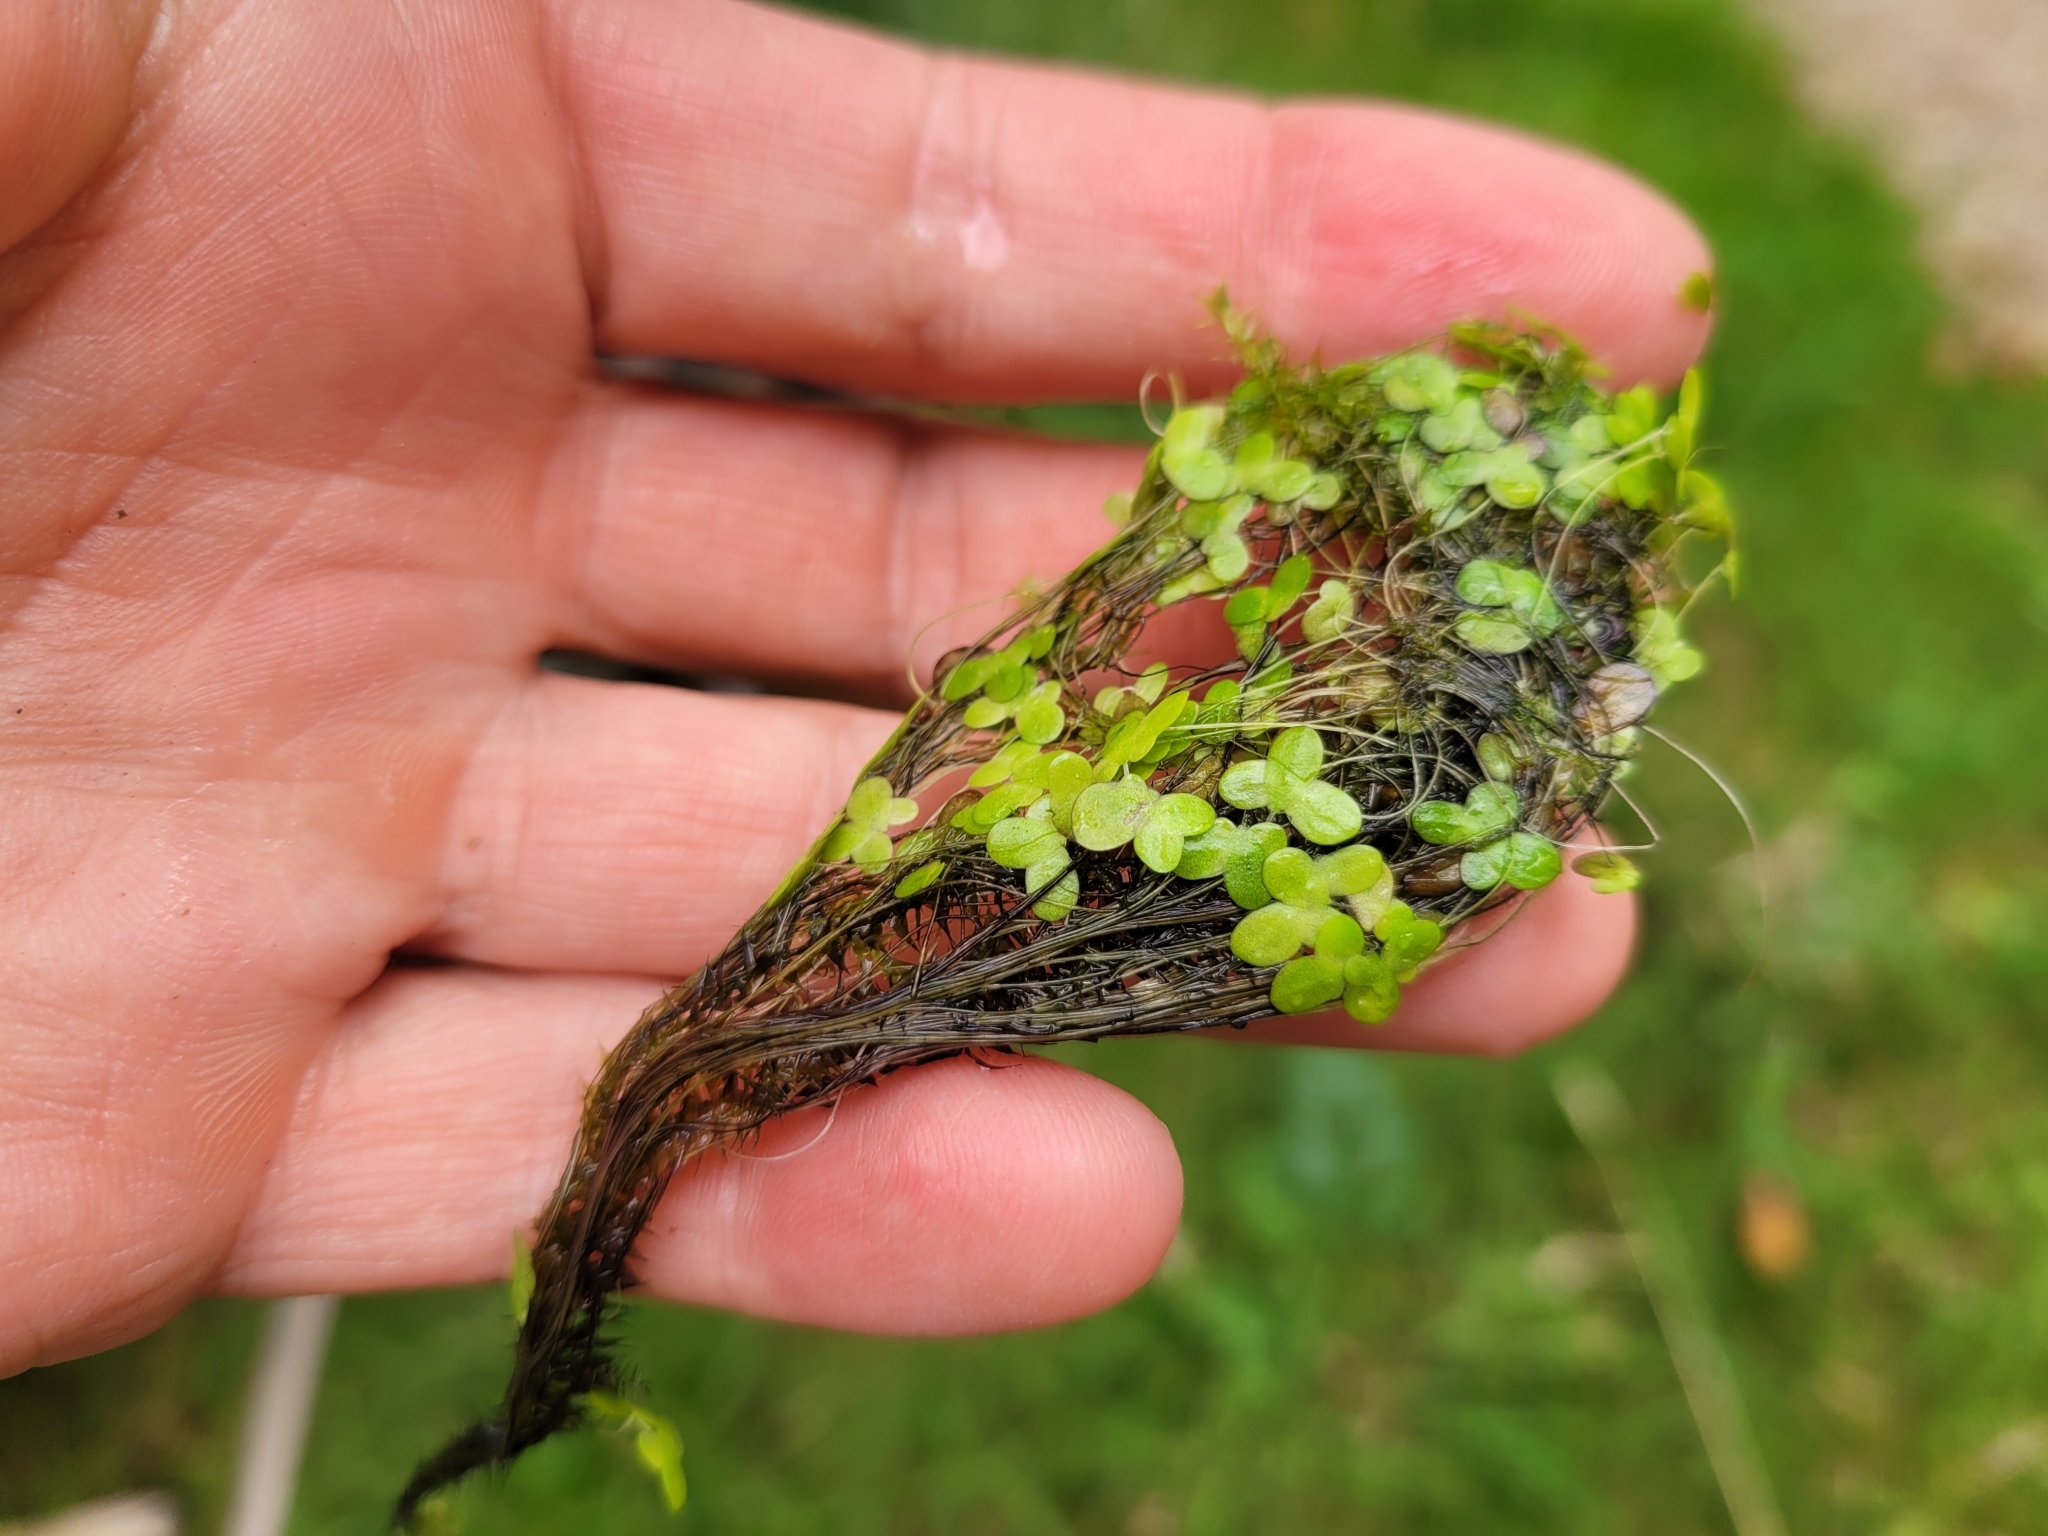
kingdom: Plantae
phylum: Tracheophyta
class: Liliopsida
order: Alismatales
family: Araceae
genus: Lemna
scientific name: Lemna minor
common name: Common duckweed
